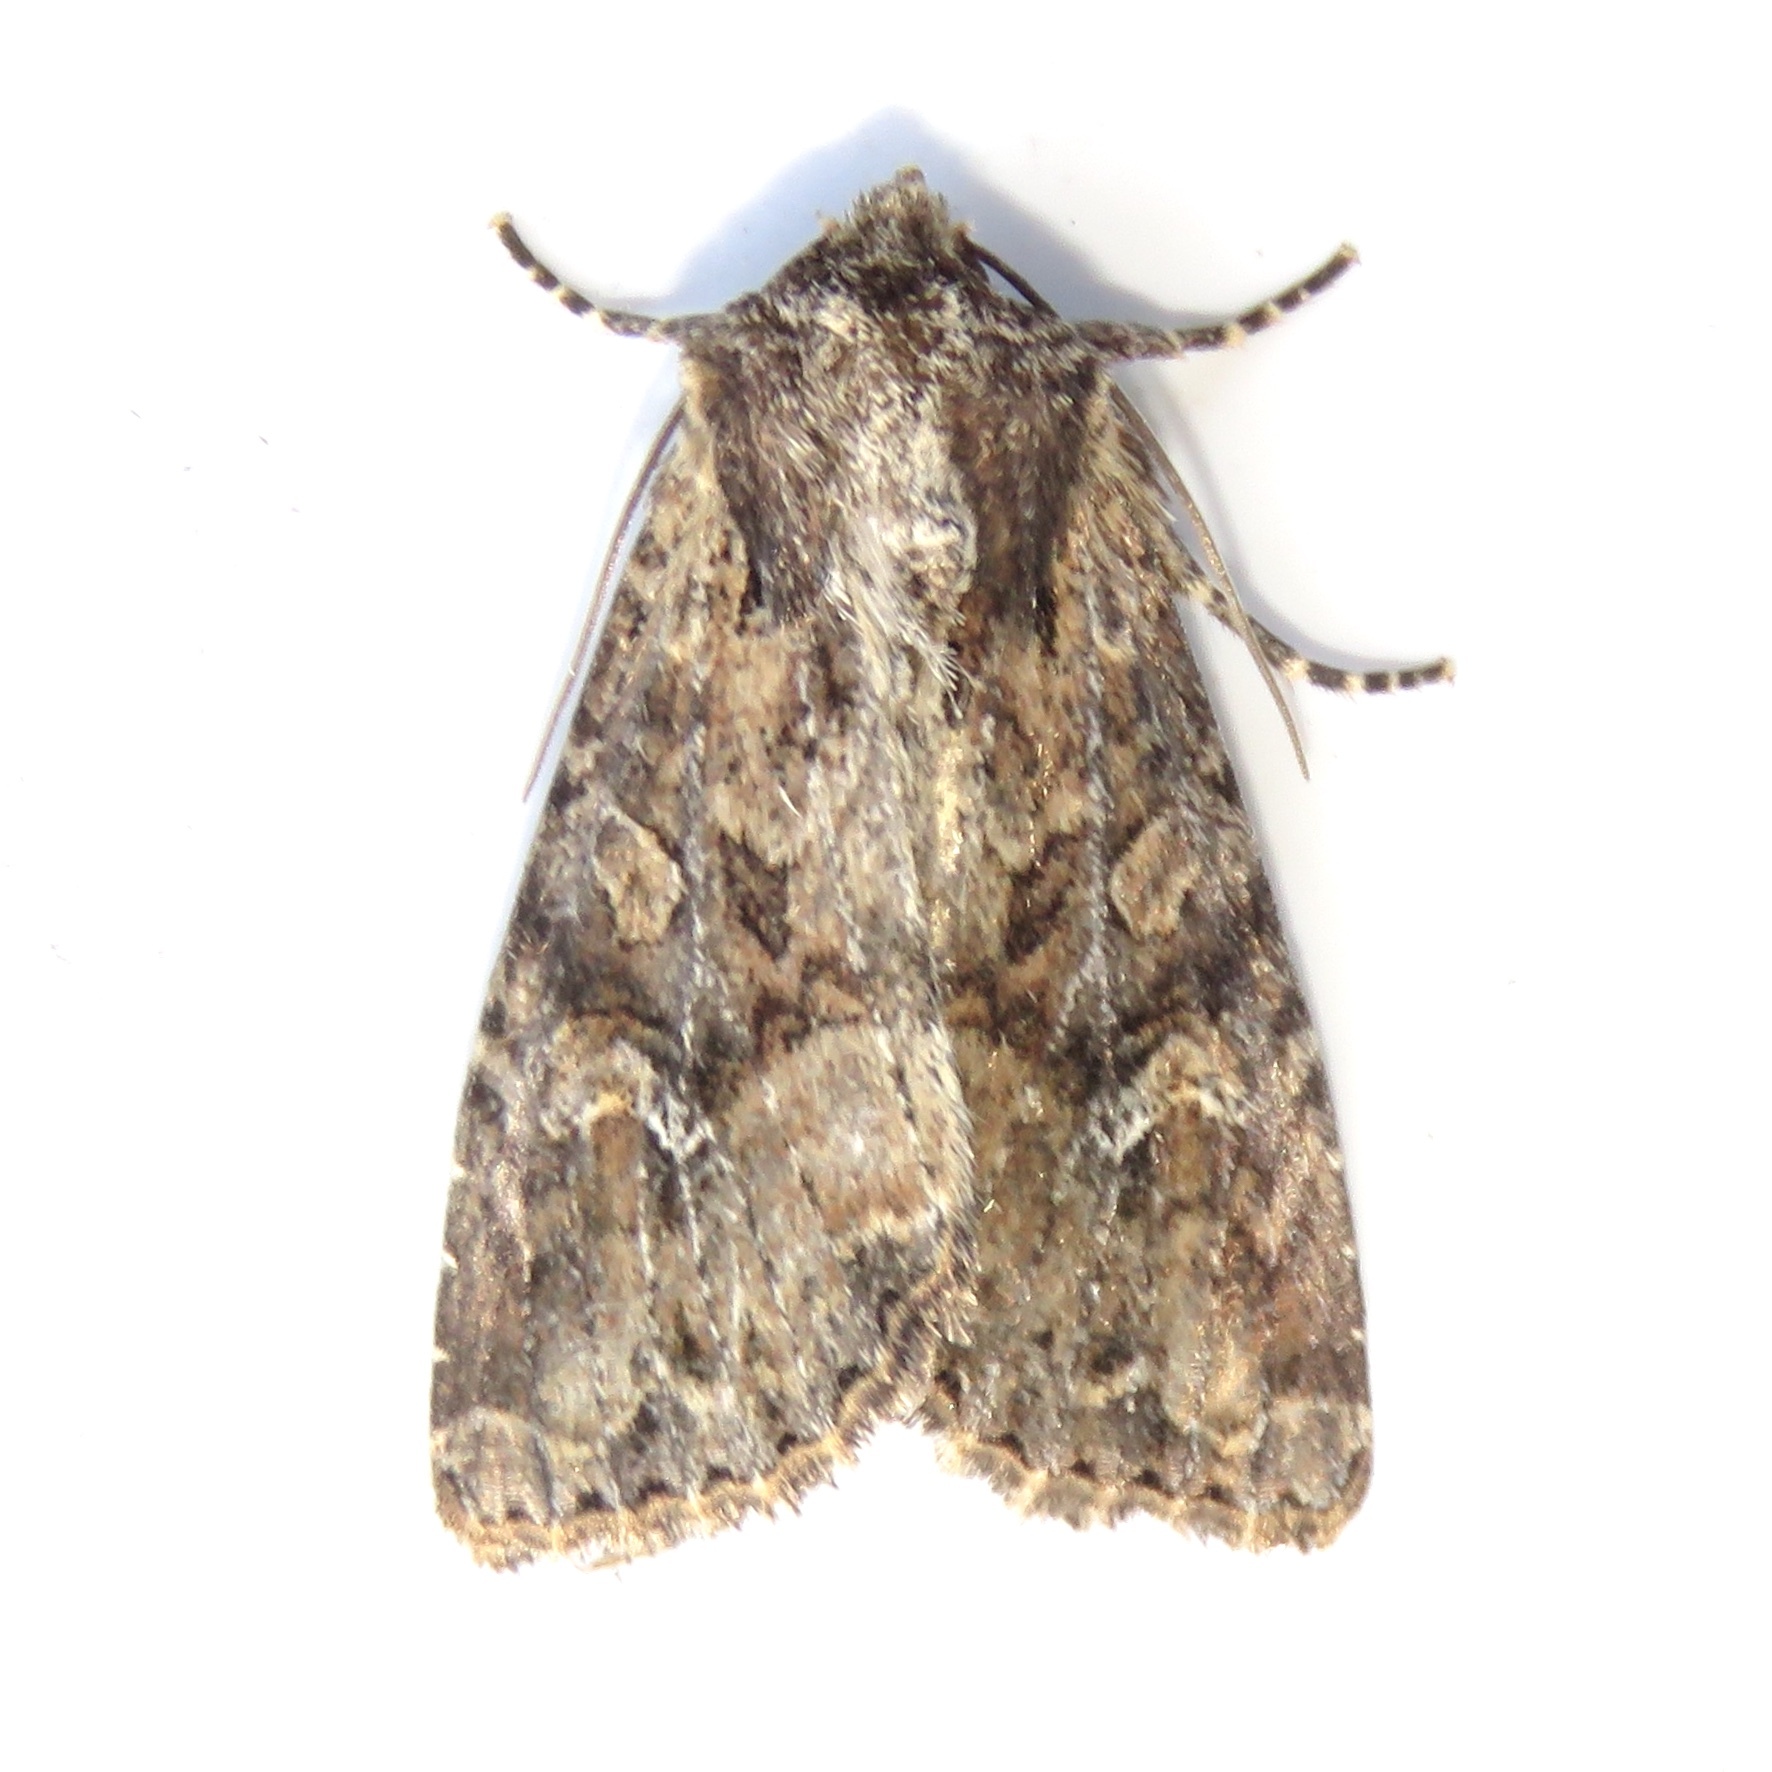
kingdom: Animalia
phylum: Arthropoda
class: Insecta
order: Lepidoptera
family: Noctuidae
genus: Apamea
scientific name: Apamea unanimis
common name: Small clouded brindle
